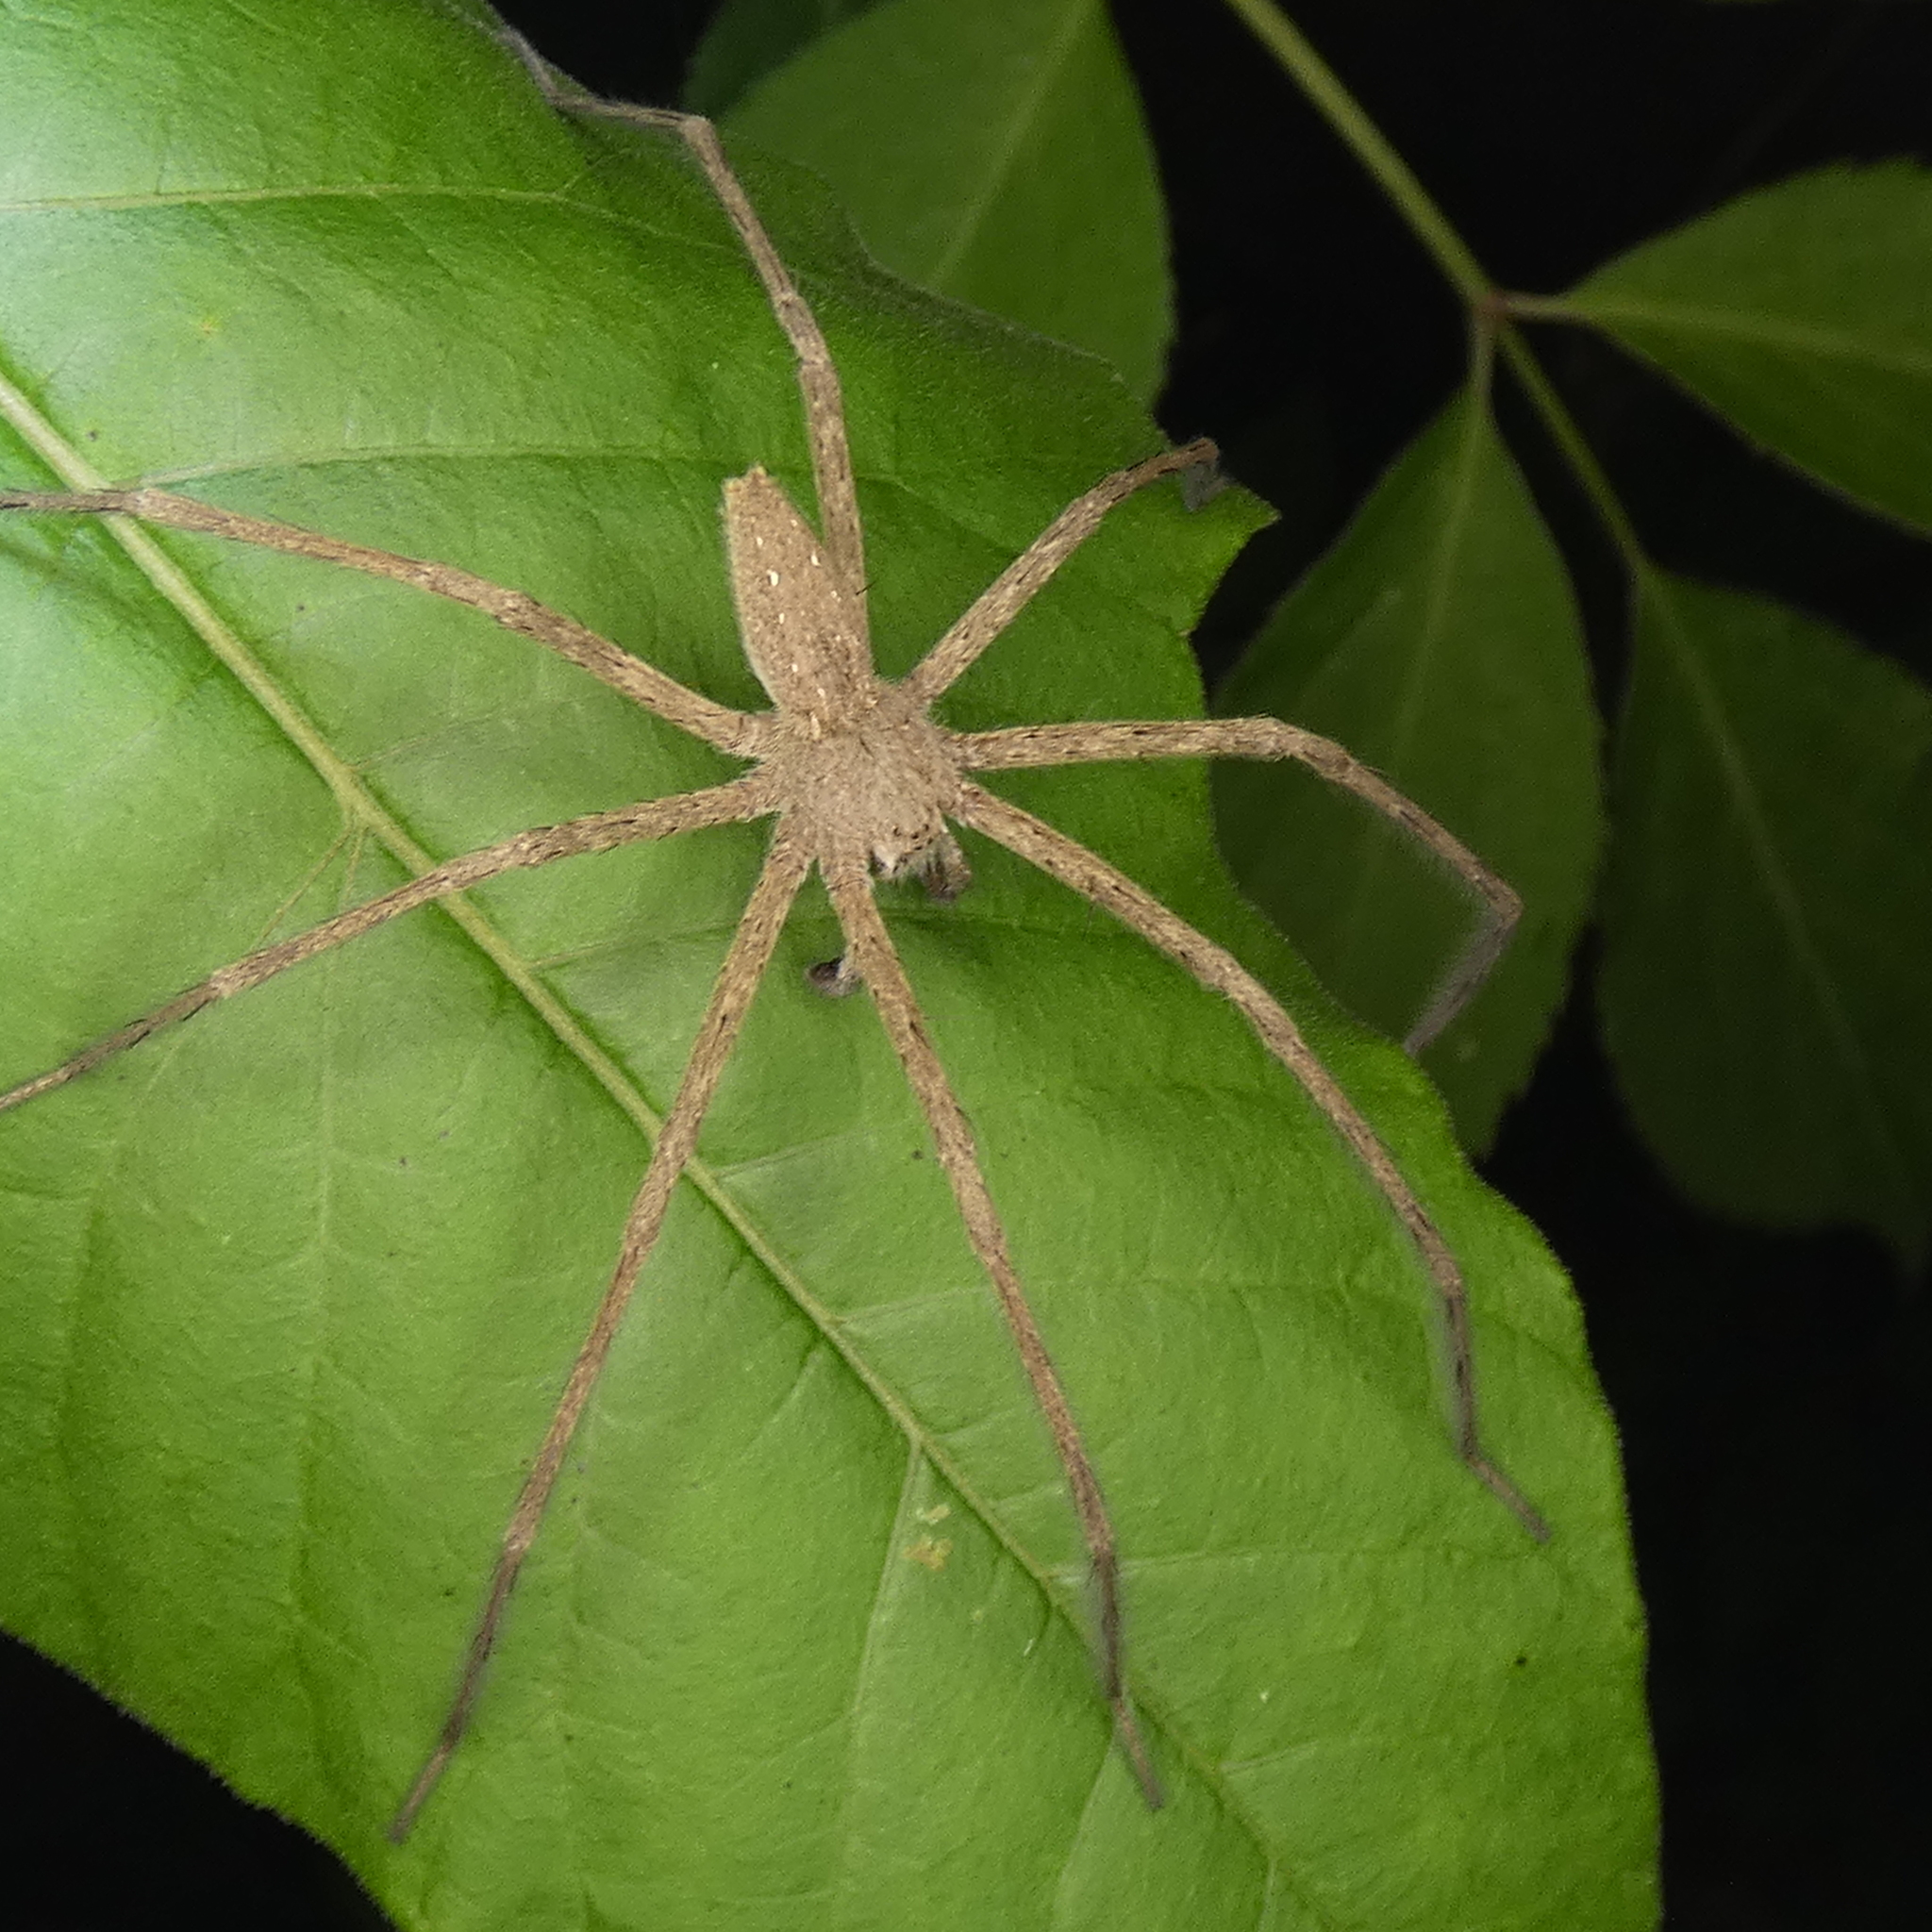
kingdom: Animalia
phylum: Arthropoda
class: Arachnida
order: Araneae
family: Pisauridae
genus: Pisaurina
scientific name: Pisaurina mira
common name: American nursery web spider
